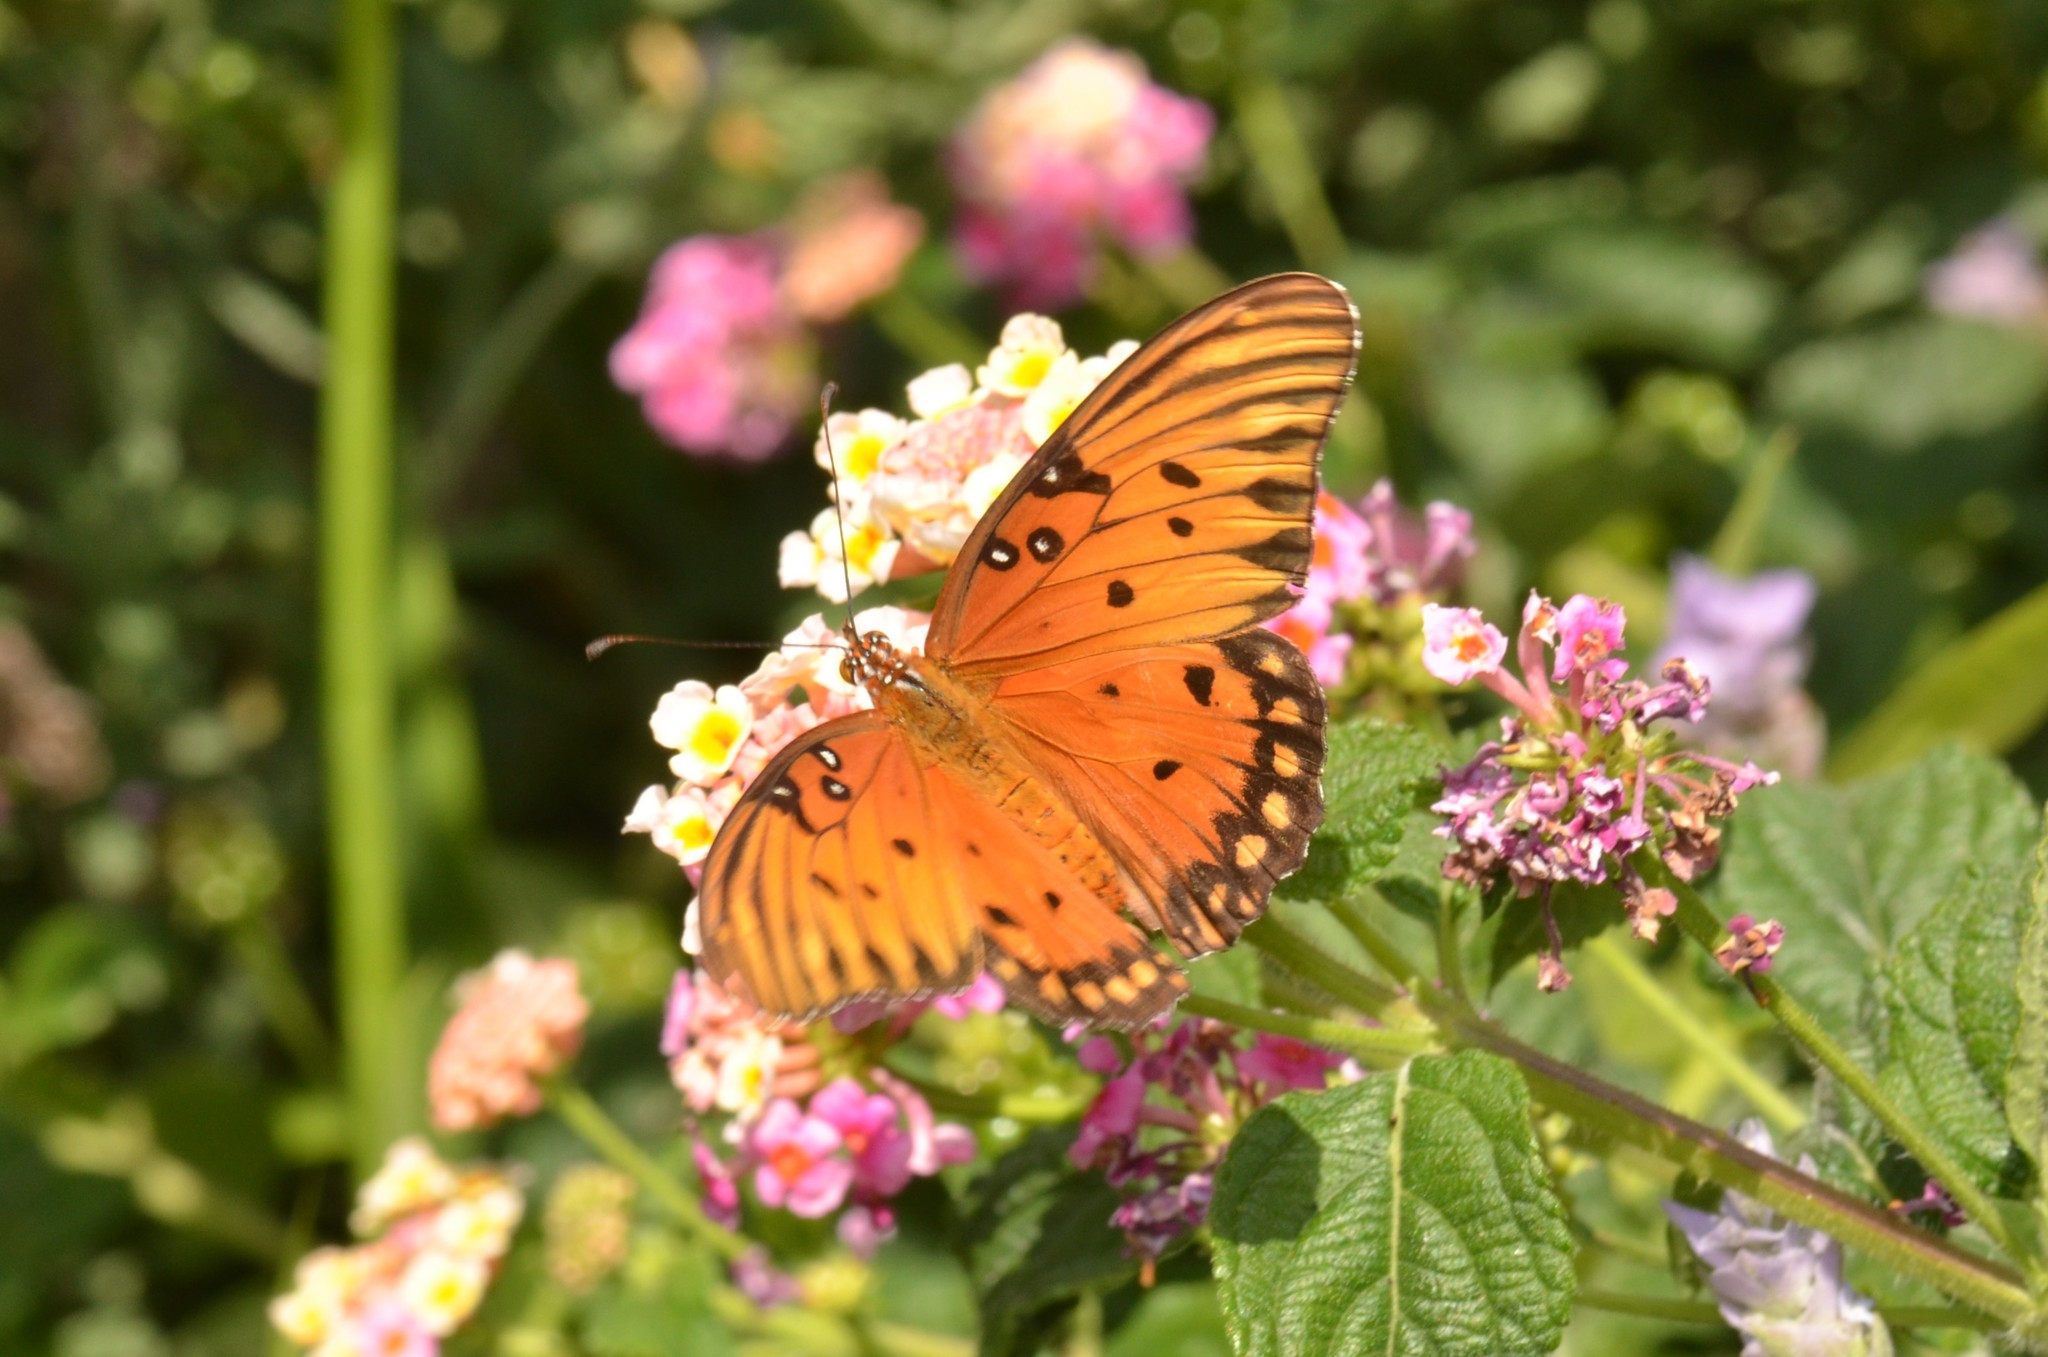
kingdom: Animalia
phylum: Arthropoda
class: Insecta
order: Lepidoptera
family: Nymphalidae
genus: Dione
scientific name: Dione vanillae
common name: Gulf fritillary
